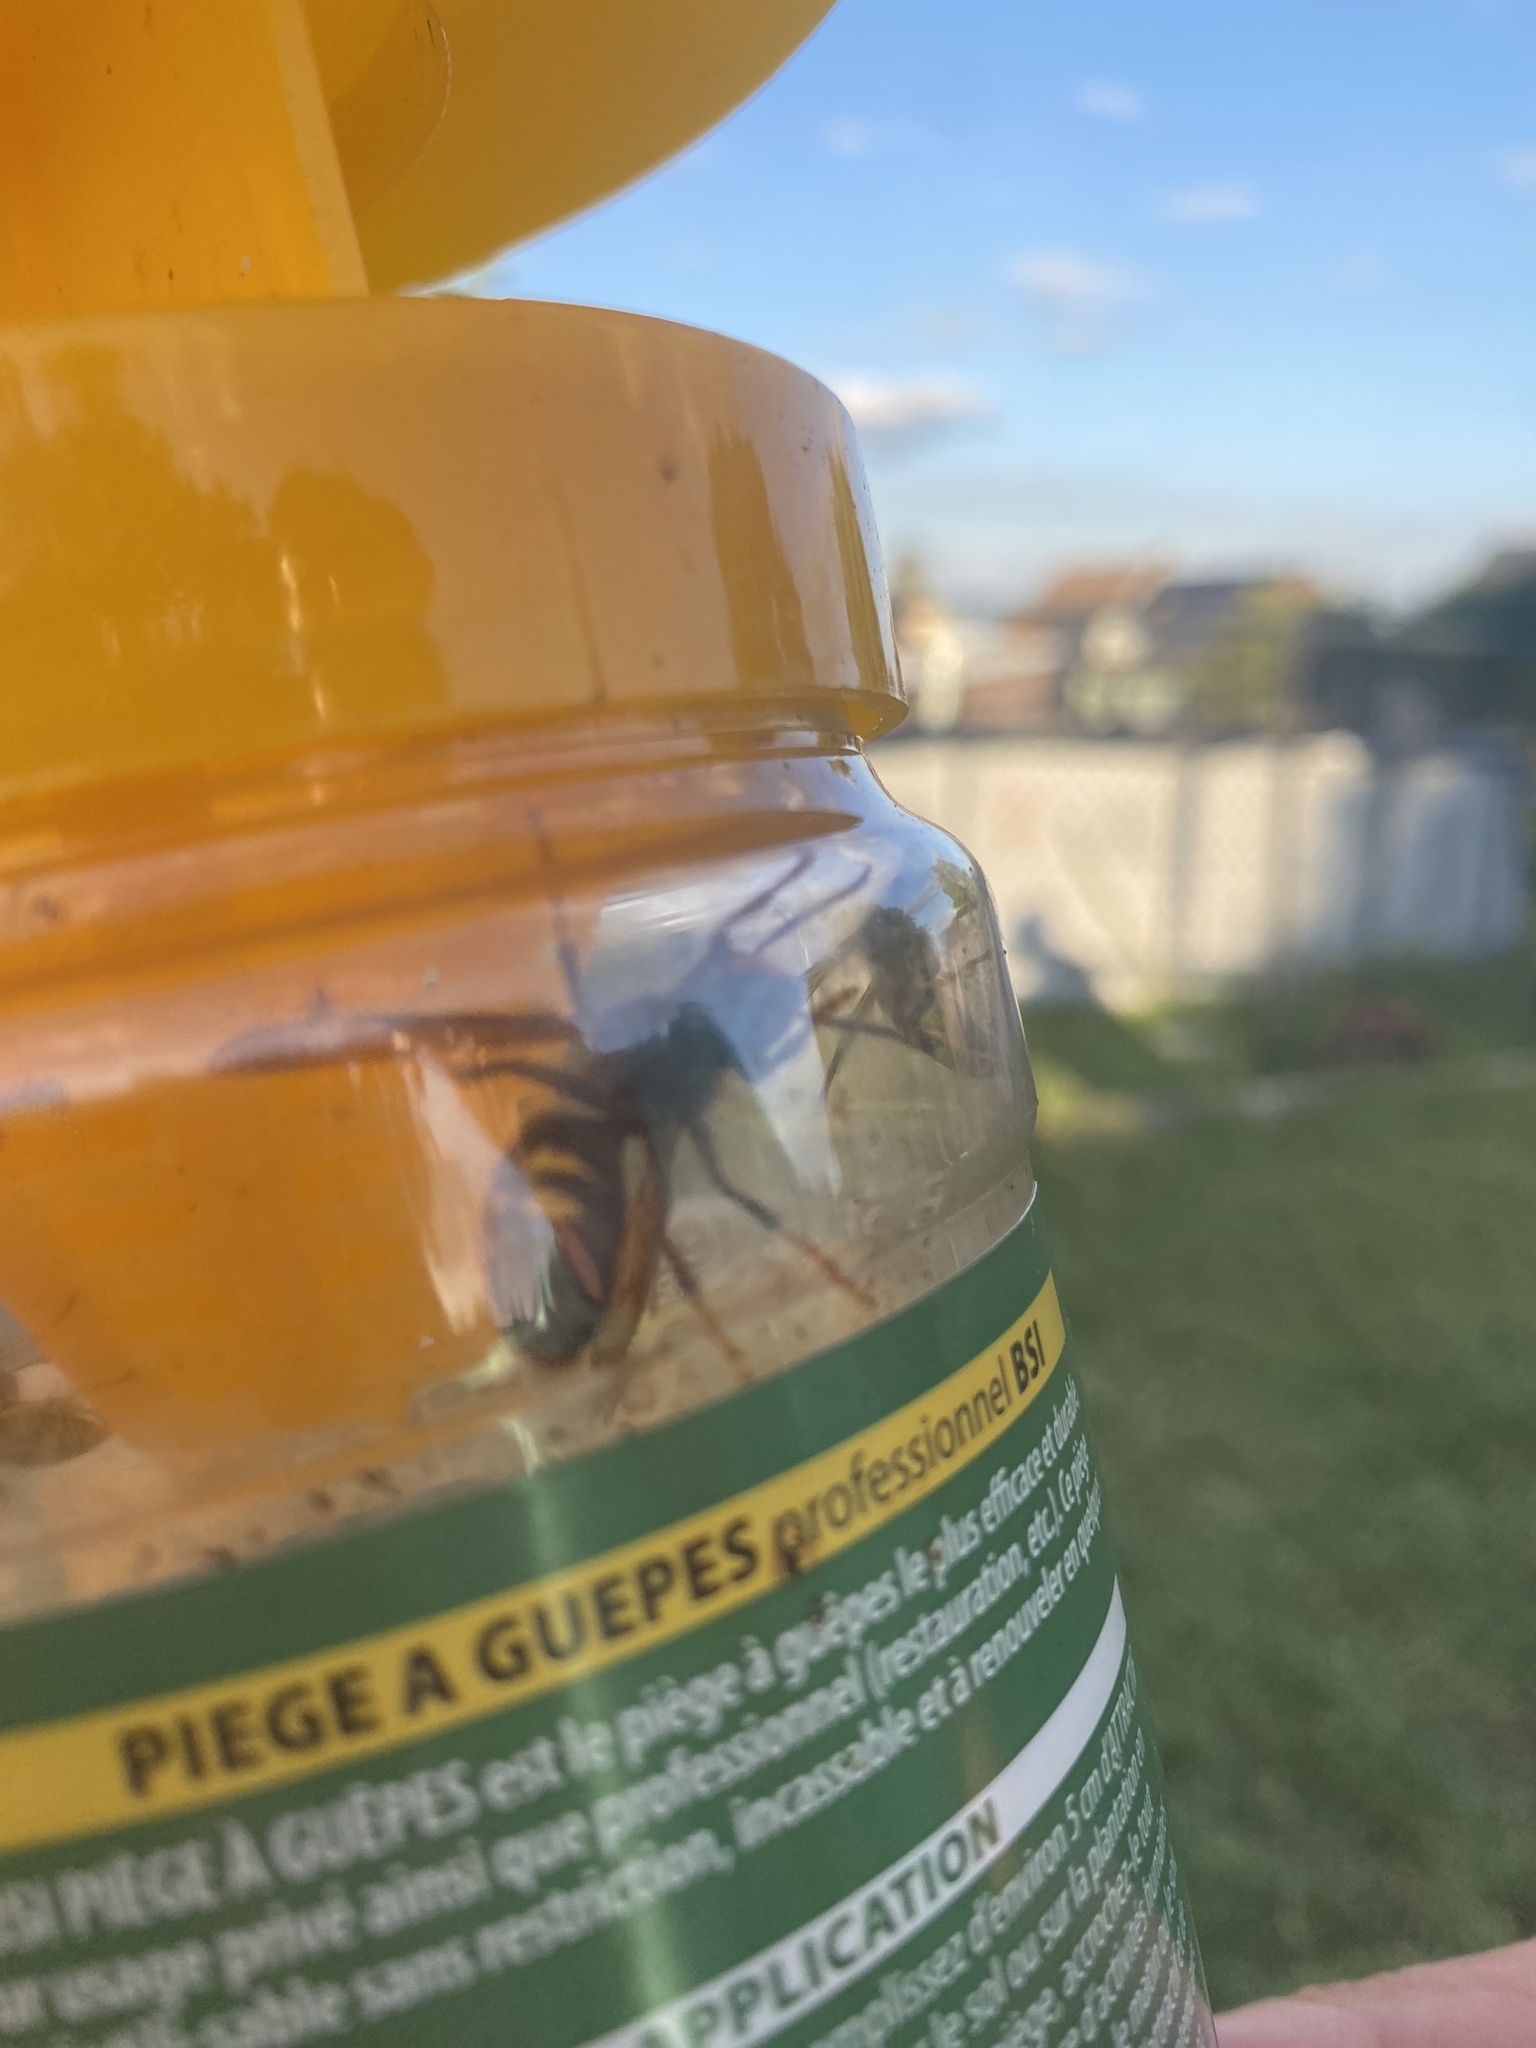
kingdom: Animalia
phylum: Arthropoda
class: Insecta
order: Hymenoptera
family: Vespidae
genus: Vespa
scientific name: Vespa velutina
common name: Asian hornet
